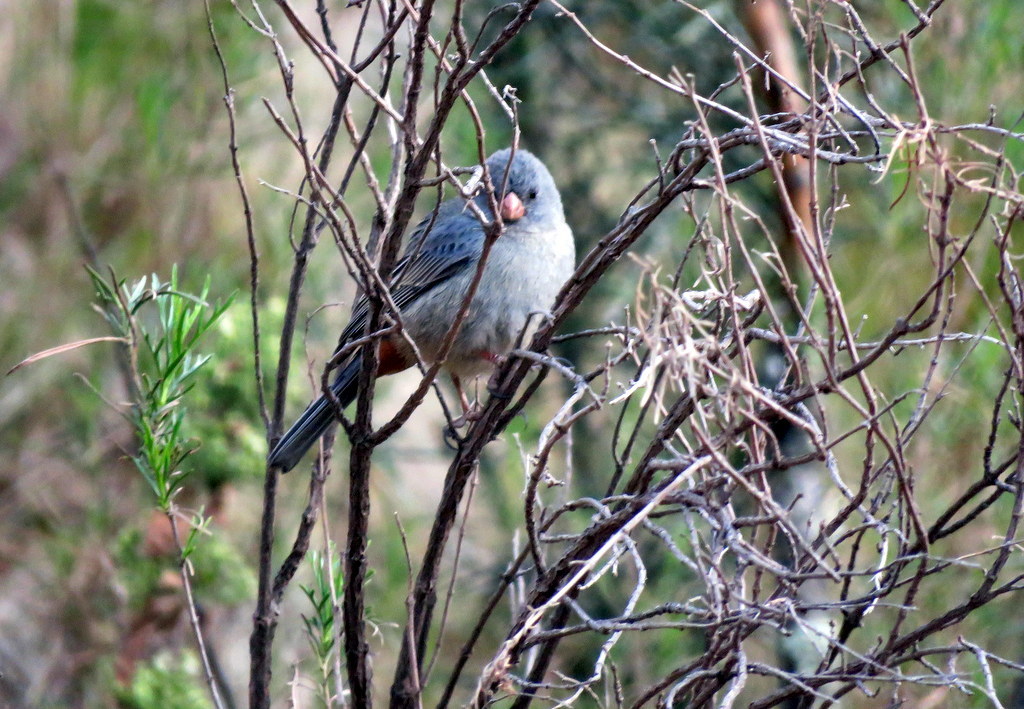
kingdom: Animalia
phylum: Chordata
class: Aves
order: Passeriformes
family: Thraupidae
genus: Catamenia
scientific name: Catamenia inornata
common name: Plain-colored seedeater
